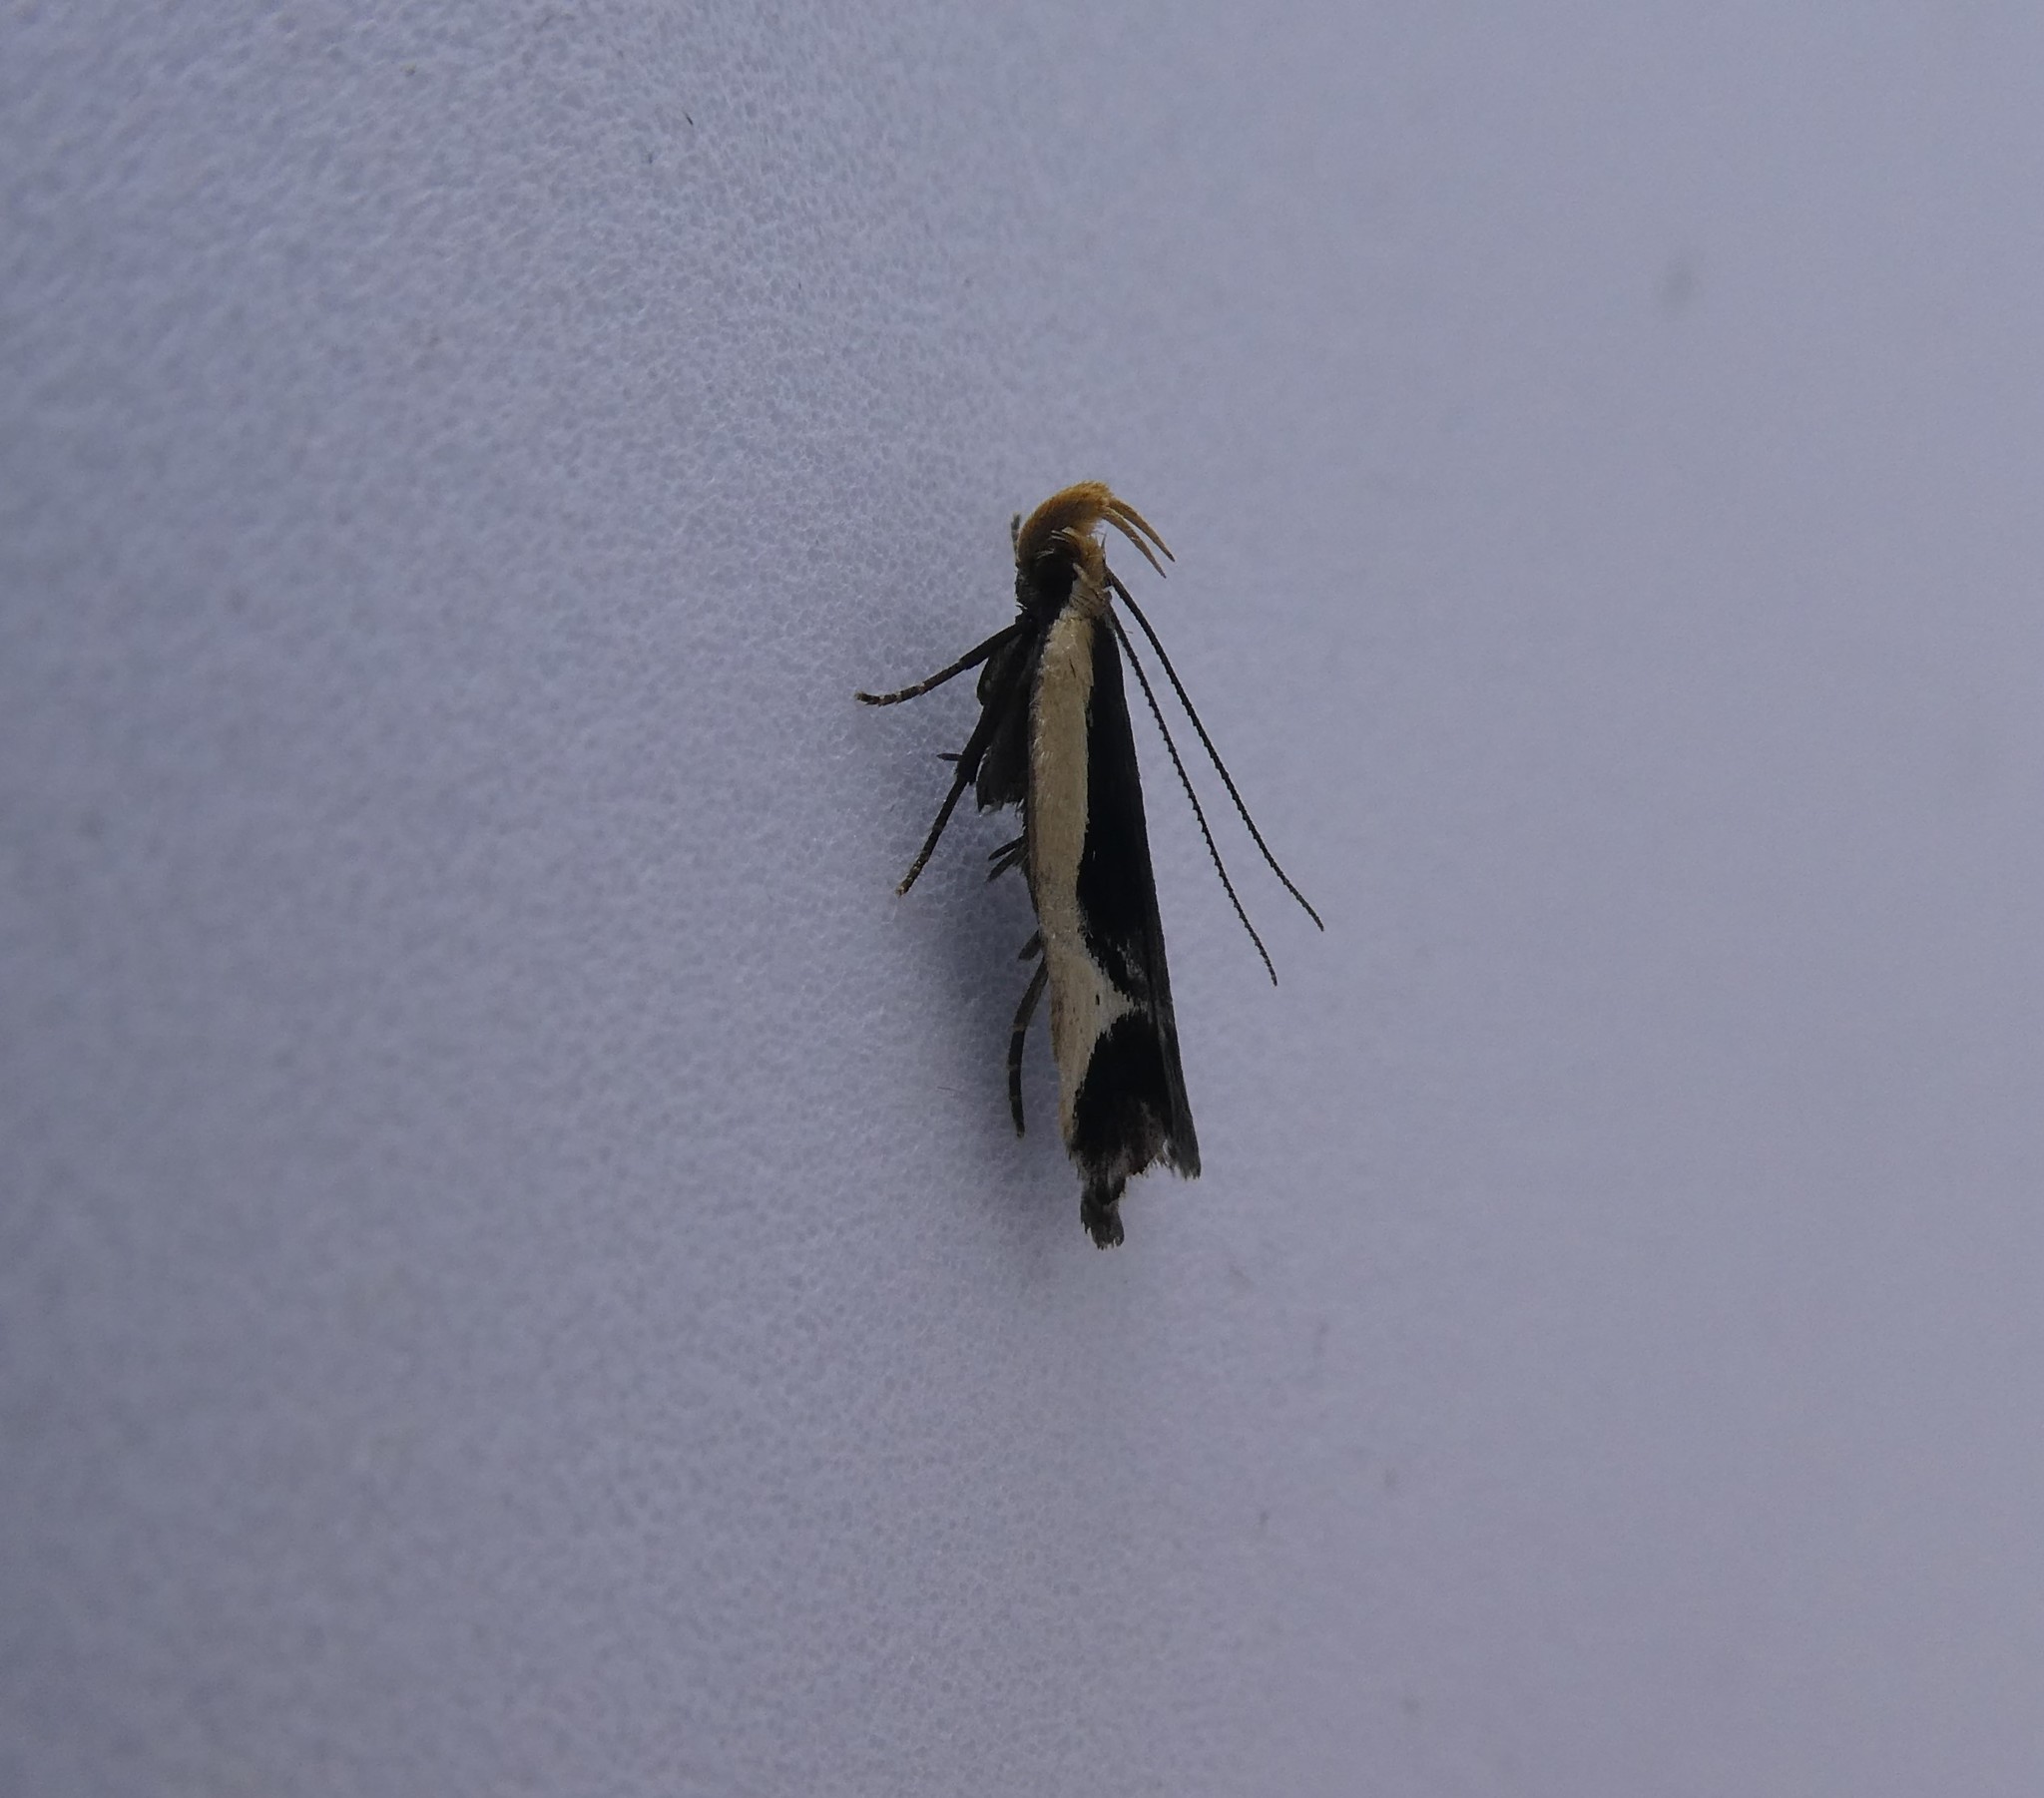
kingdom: Animalia
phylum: Arthropoda
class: Insecta
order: Lepidoptera
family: Gelechiidae
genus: Dichomeris
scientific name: Dichomeris flavocostella
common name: Cream-edged dichomeris moth
